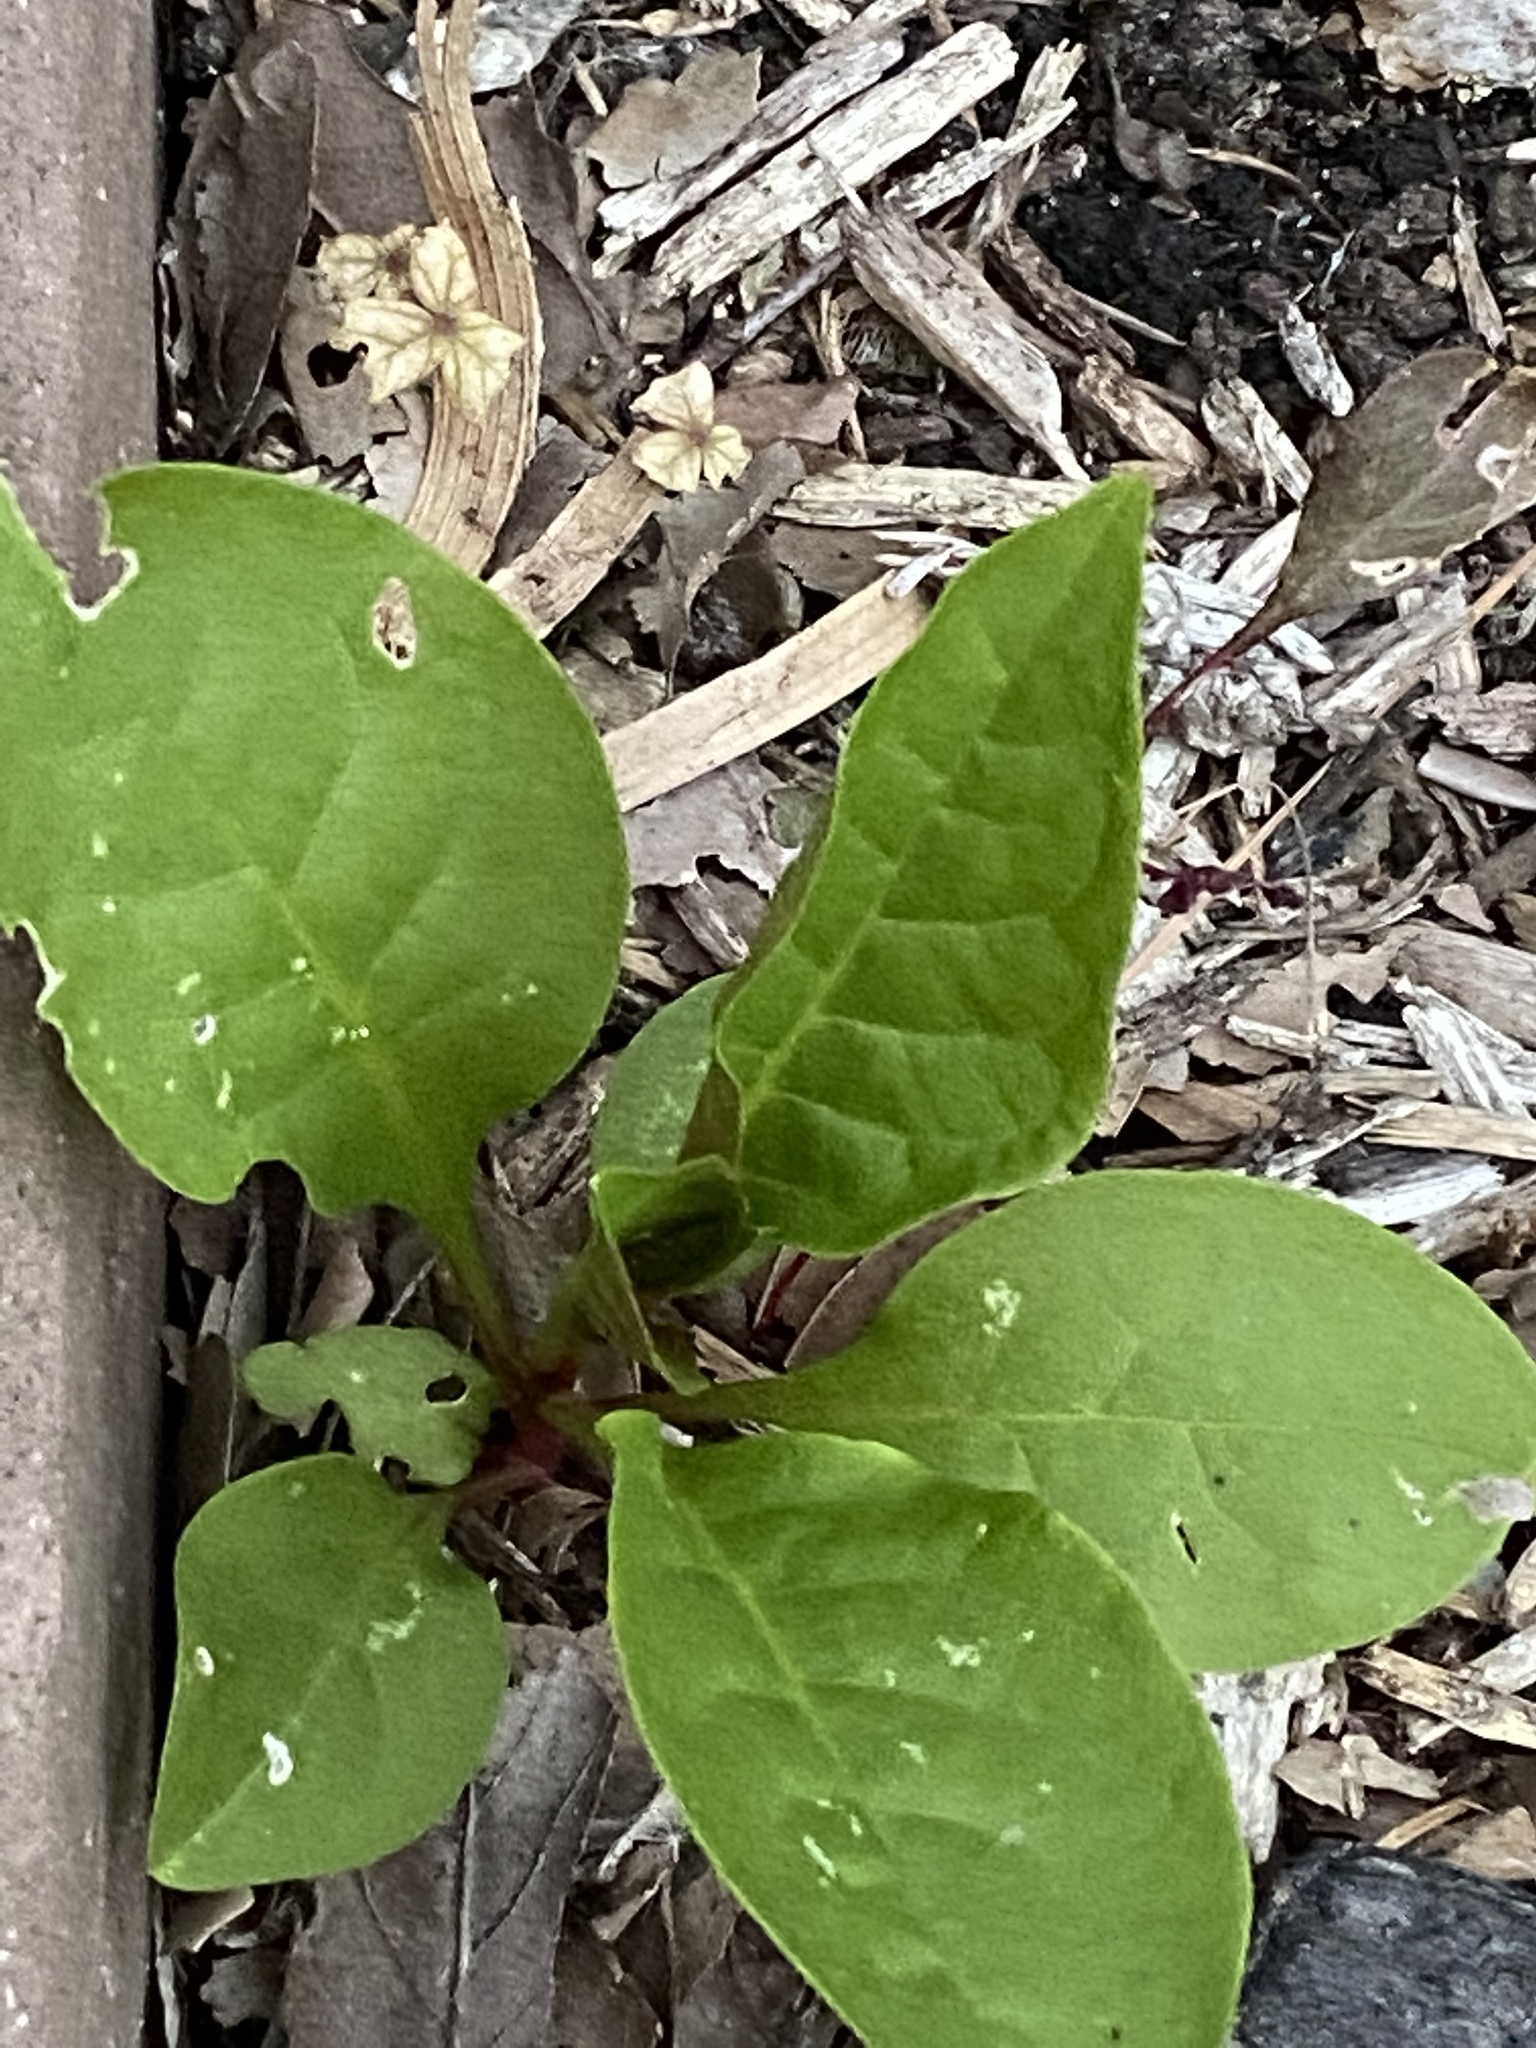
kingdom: Plantae
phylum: Tracheophyta
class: Magnoliopsida
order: Caryophyllales
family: Phytolaccaceae
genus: Phytolacca
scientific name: Phytolacca americana
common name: American pokeweed
